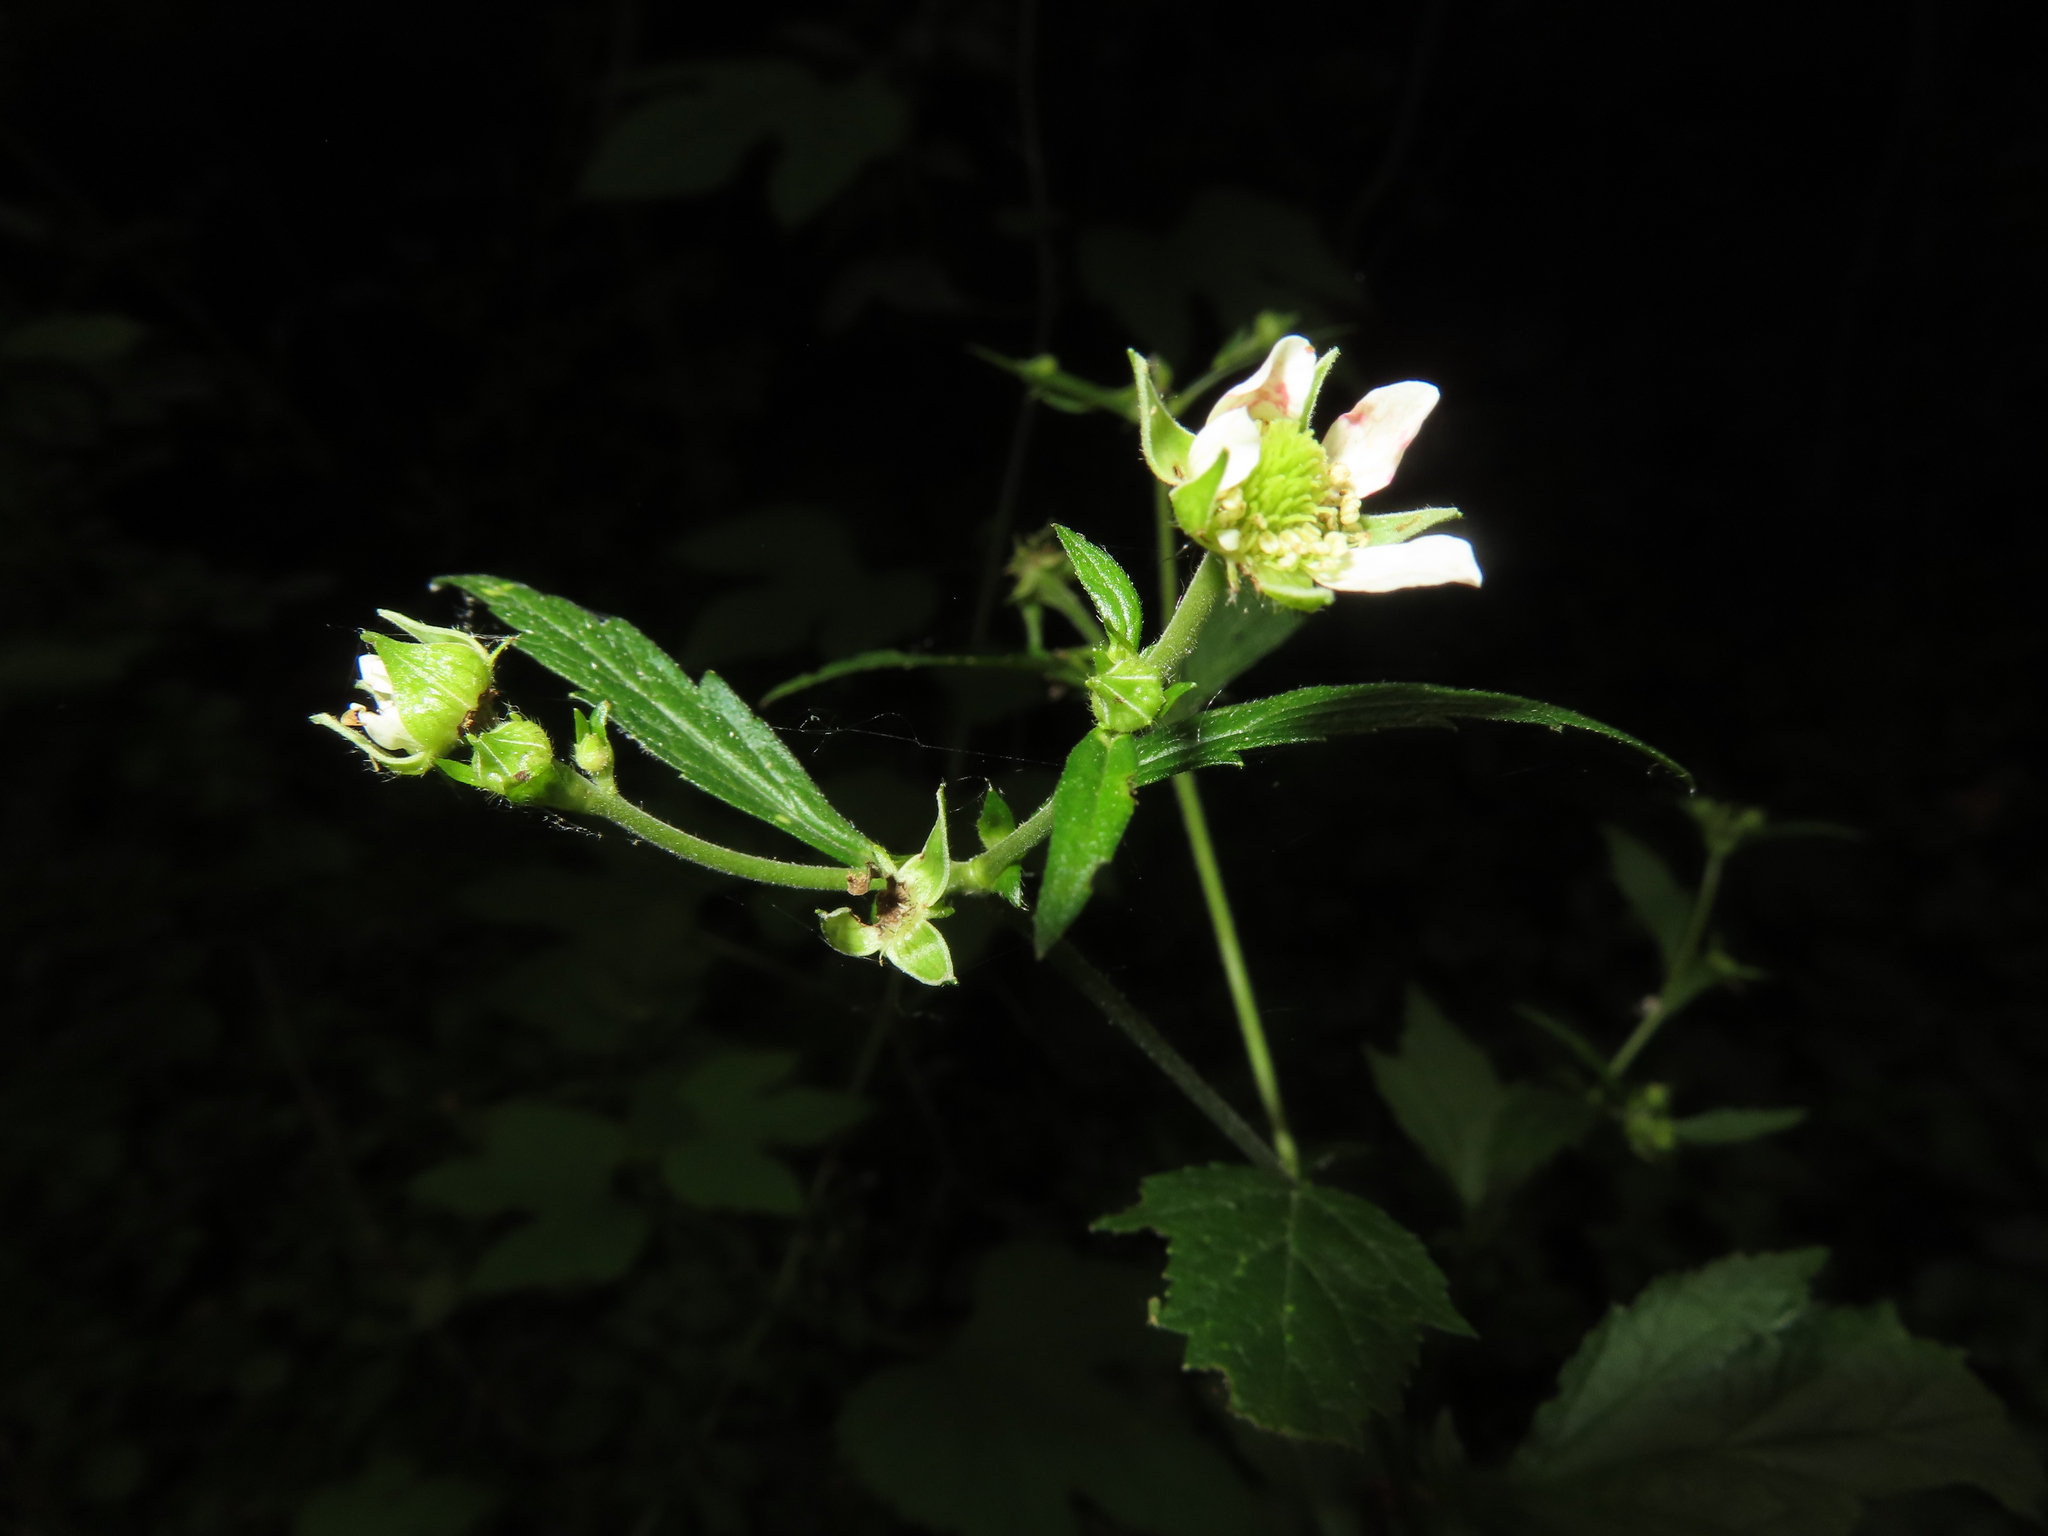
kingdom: Plantae
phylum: Tracheophyta
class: Magnoliopsida
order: Rosales
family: Rosaceae
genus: Geum
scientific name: Geum canadense
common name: White avens
